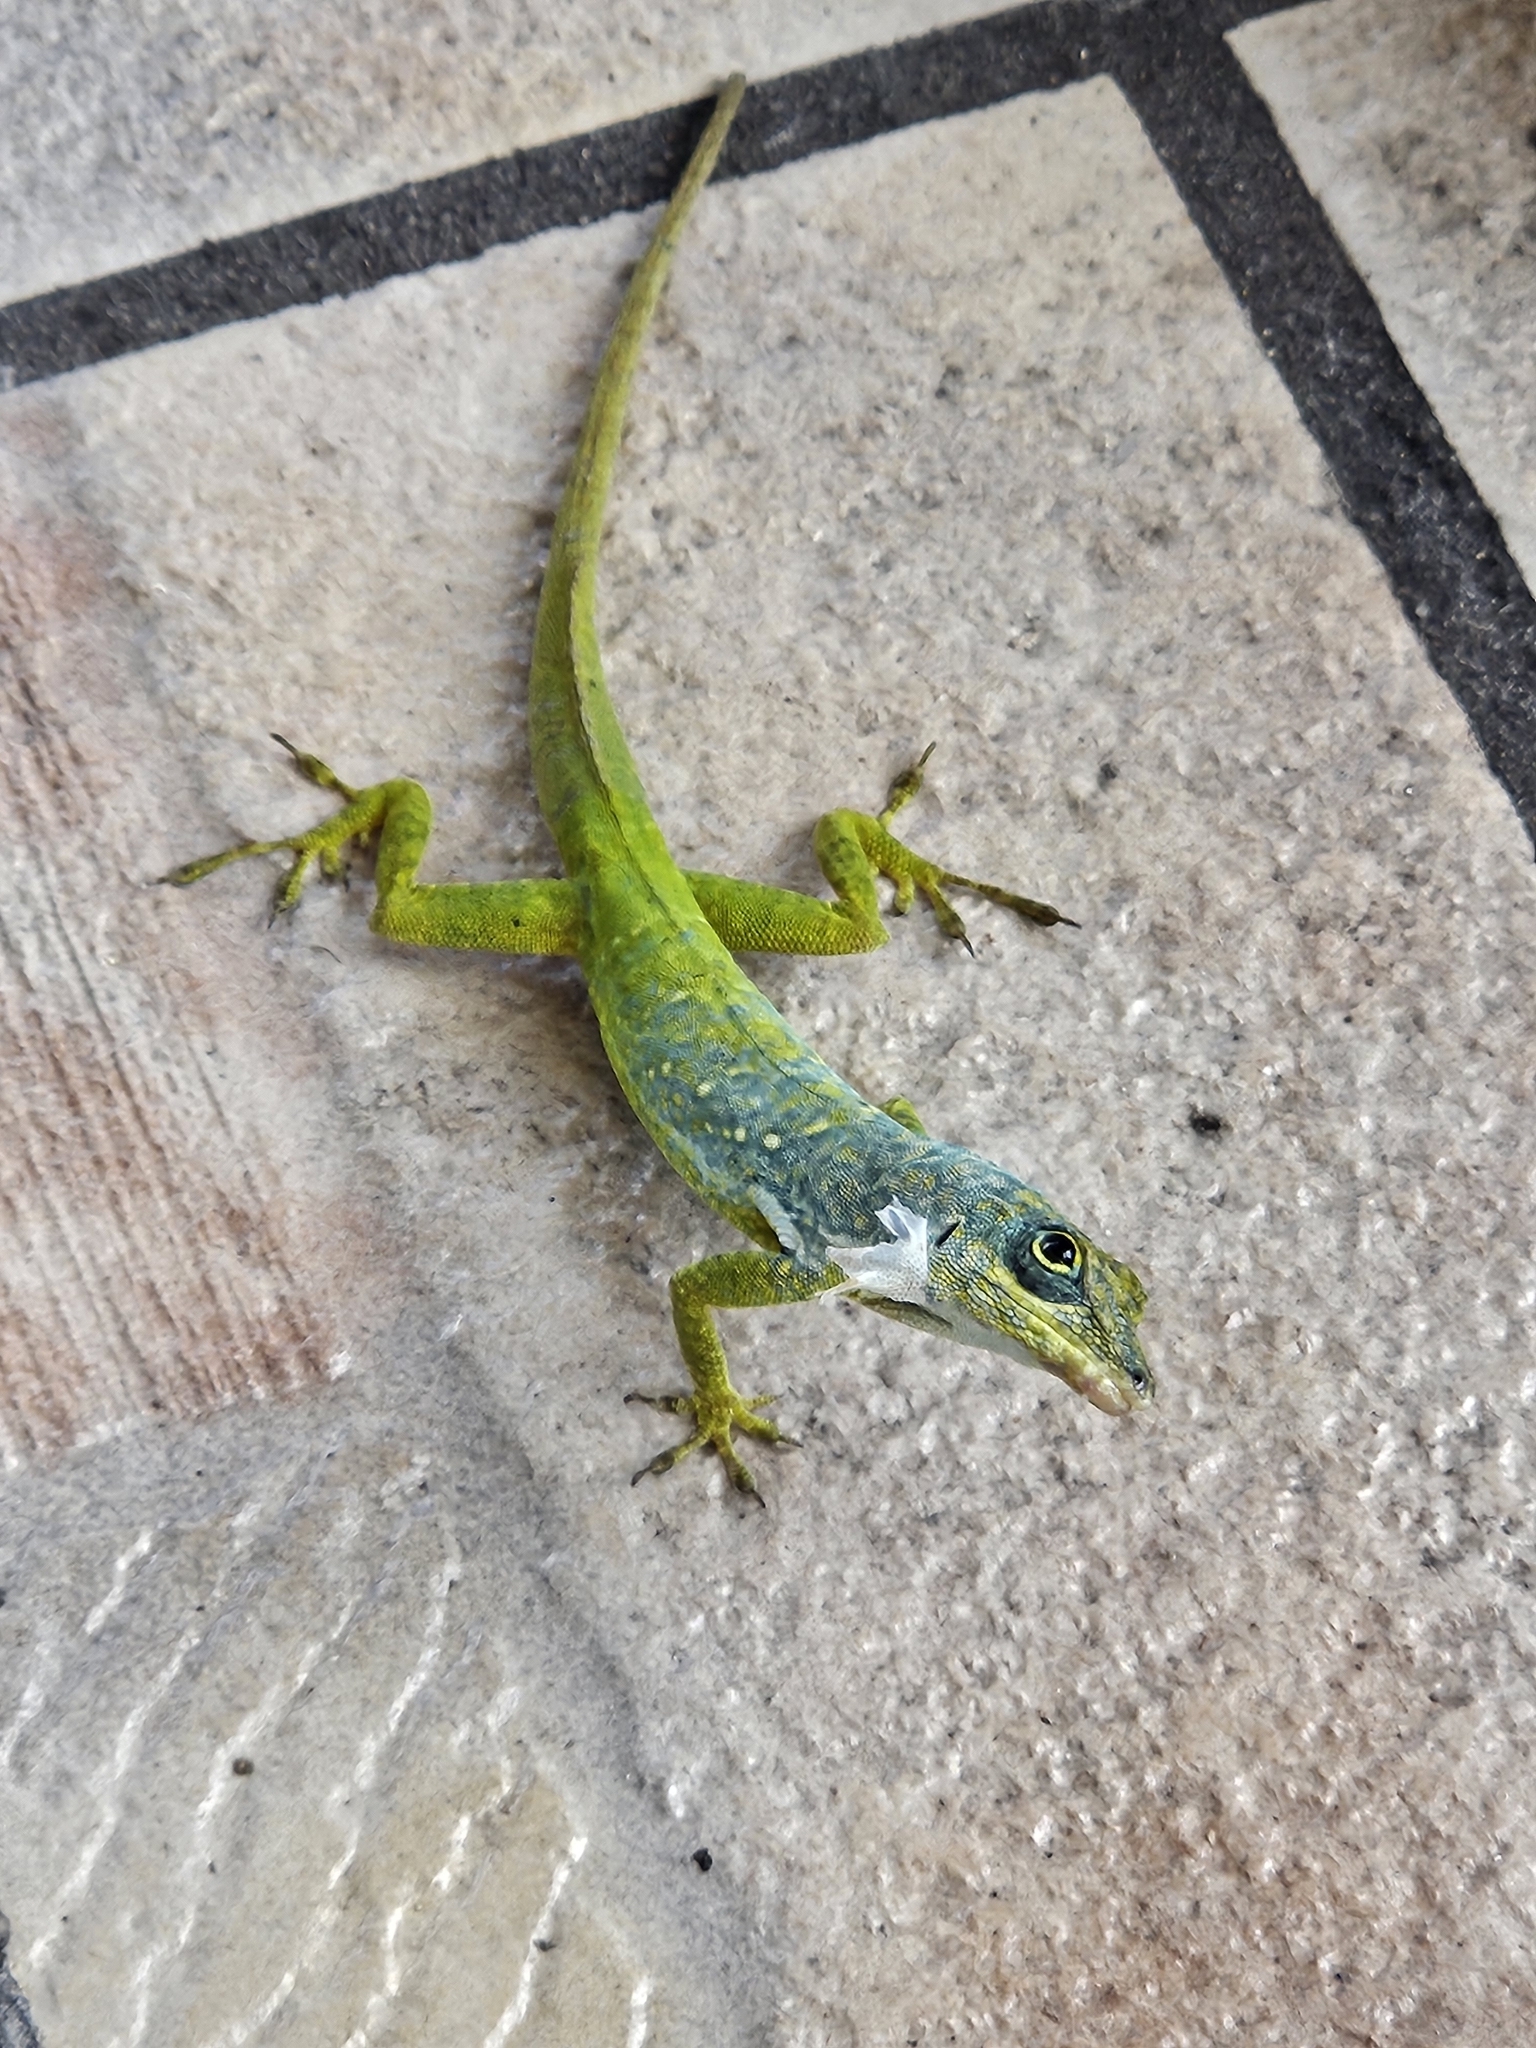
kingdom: Animalia
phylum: Chordata
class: Squamata
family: Dactyloidae
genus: Anolis
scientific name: Anolis roquet
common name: Martinique anole
